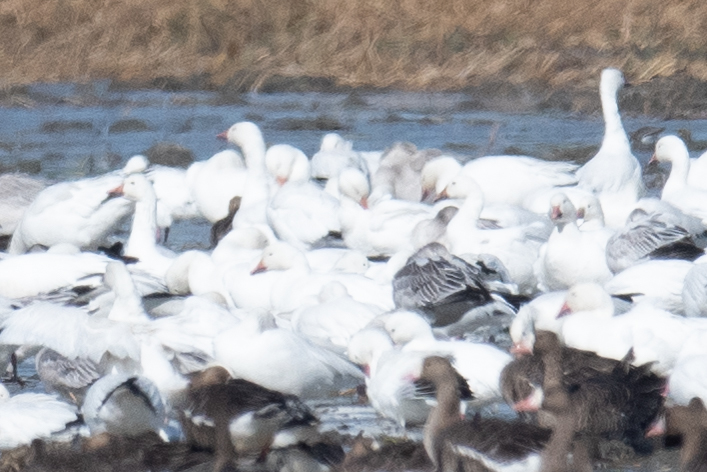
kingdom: Animalia
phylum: Chordata
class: Aves
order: Anseriformes
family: Anatidae
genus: Anser
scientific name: Anser caerulescens
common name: Snow goose
